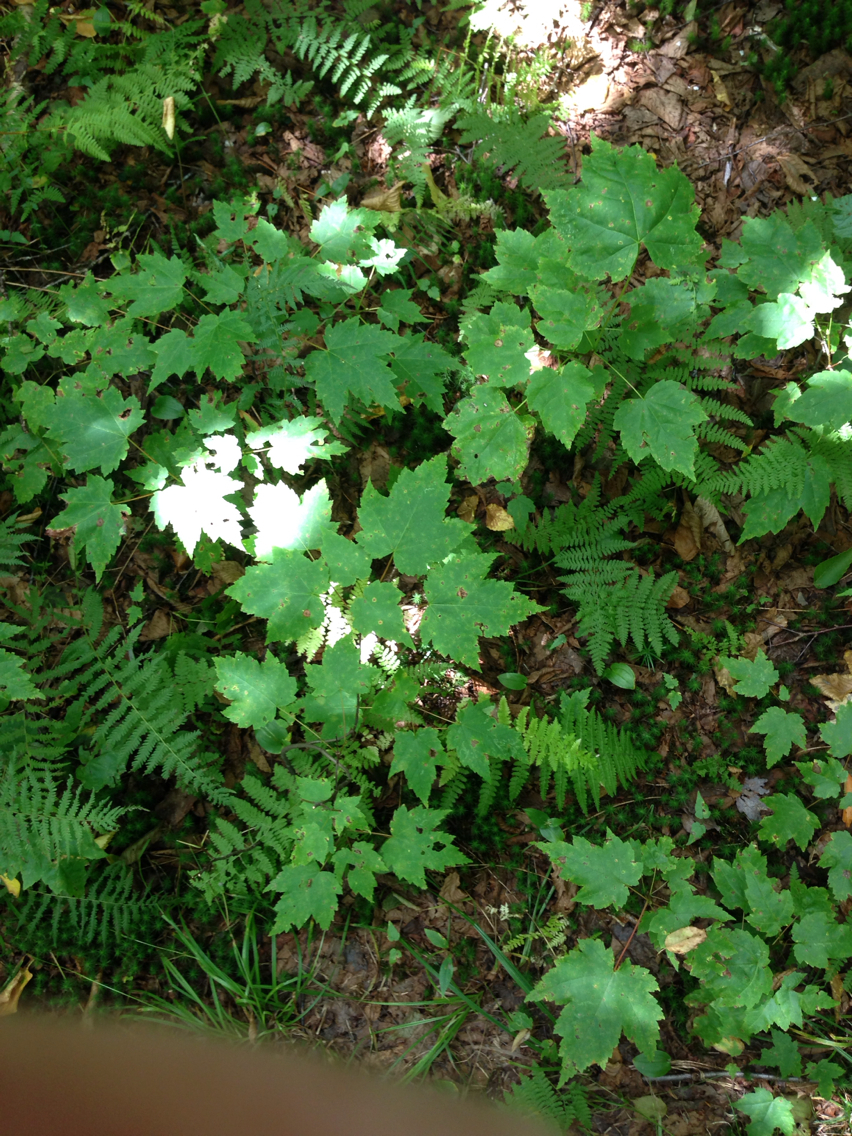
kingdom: Plantae
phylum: Tracheophyta
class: Magnoliopsida
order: Sapindales
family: Sapindaceae
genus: Acer
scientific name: Acer rubrum
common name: Red maple
